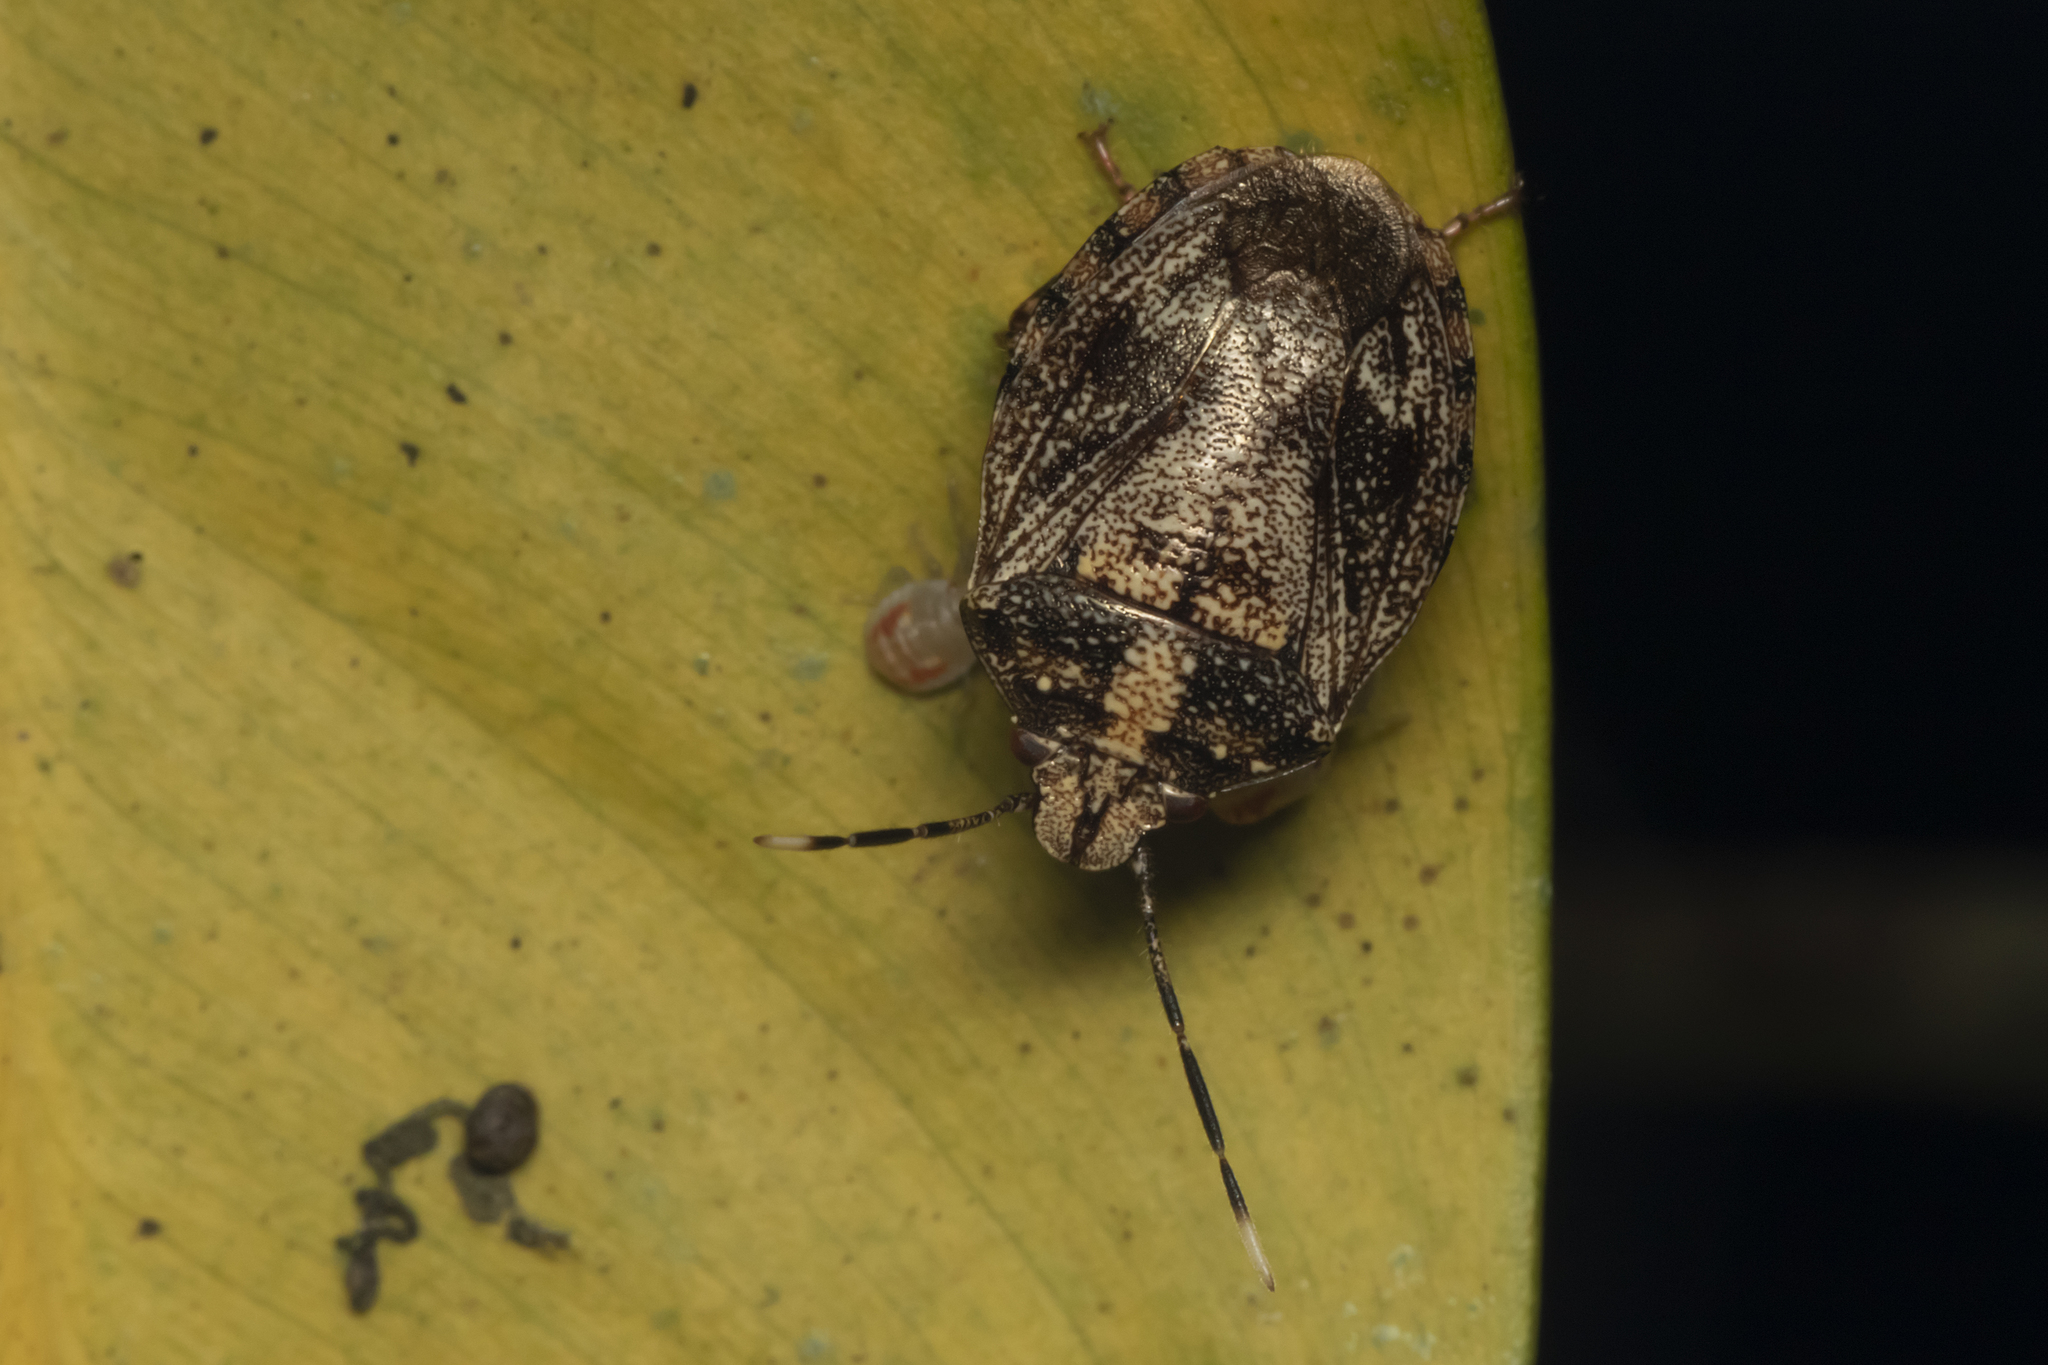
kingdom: Animalia
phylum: Arthropoda
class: Insecta
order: Hemiptera
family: Pentatomidae
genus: Antiteuchus
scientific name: Antiteuchus tripterus
